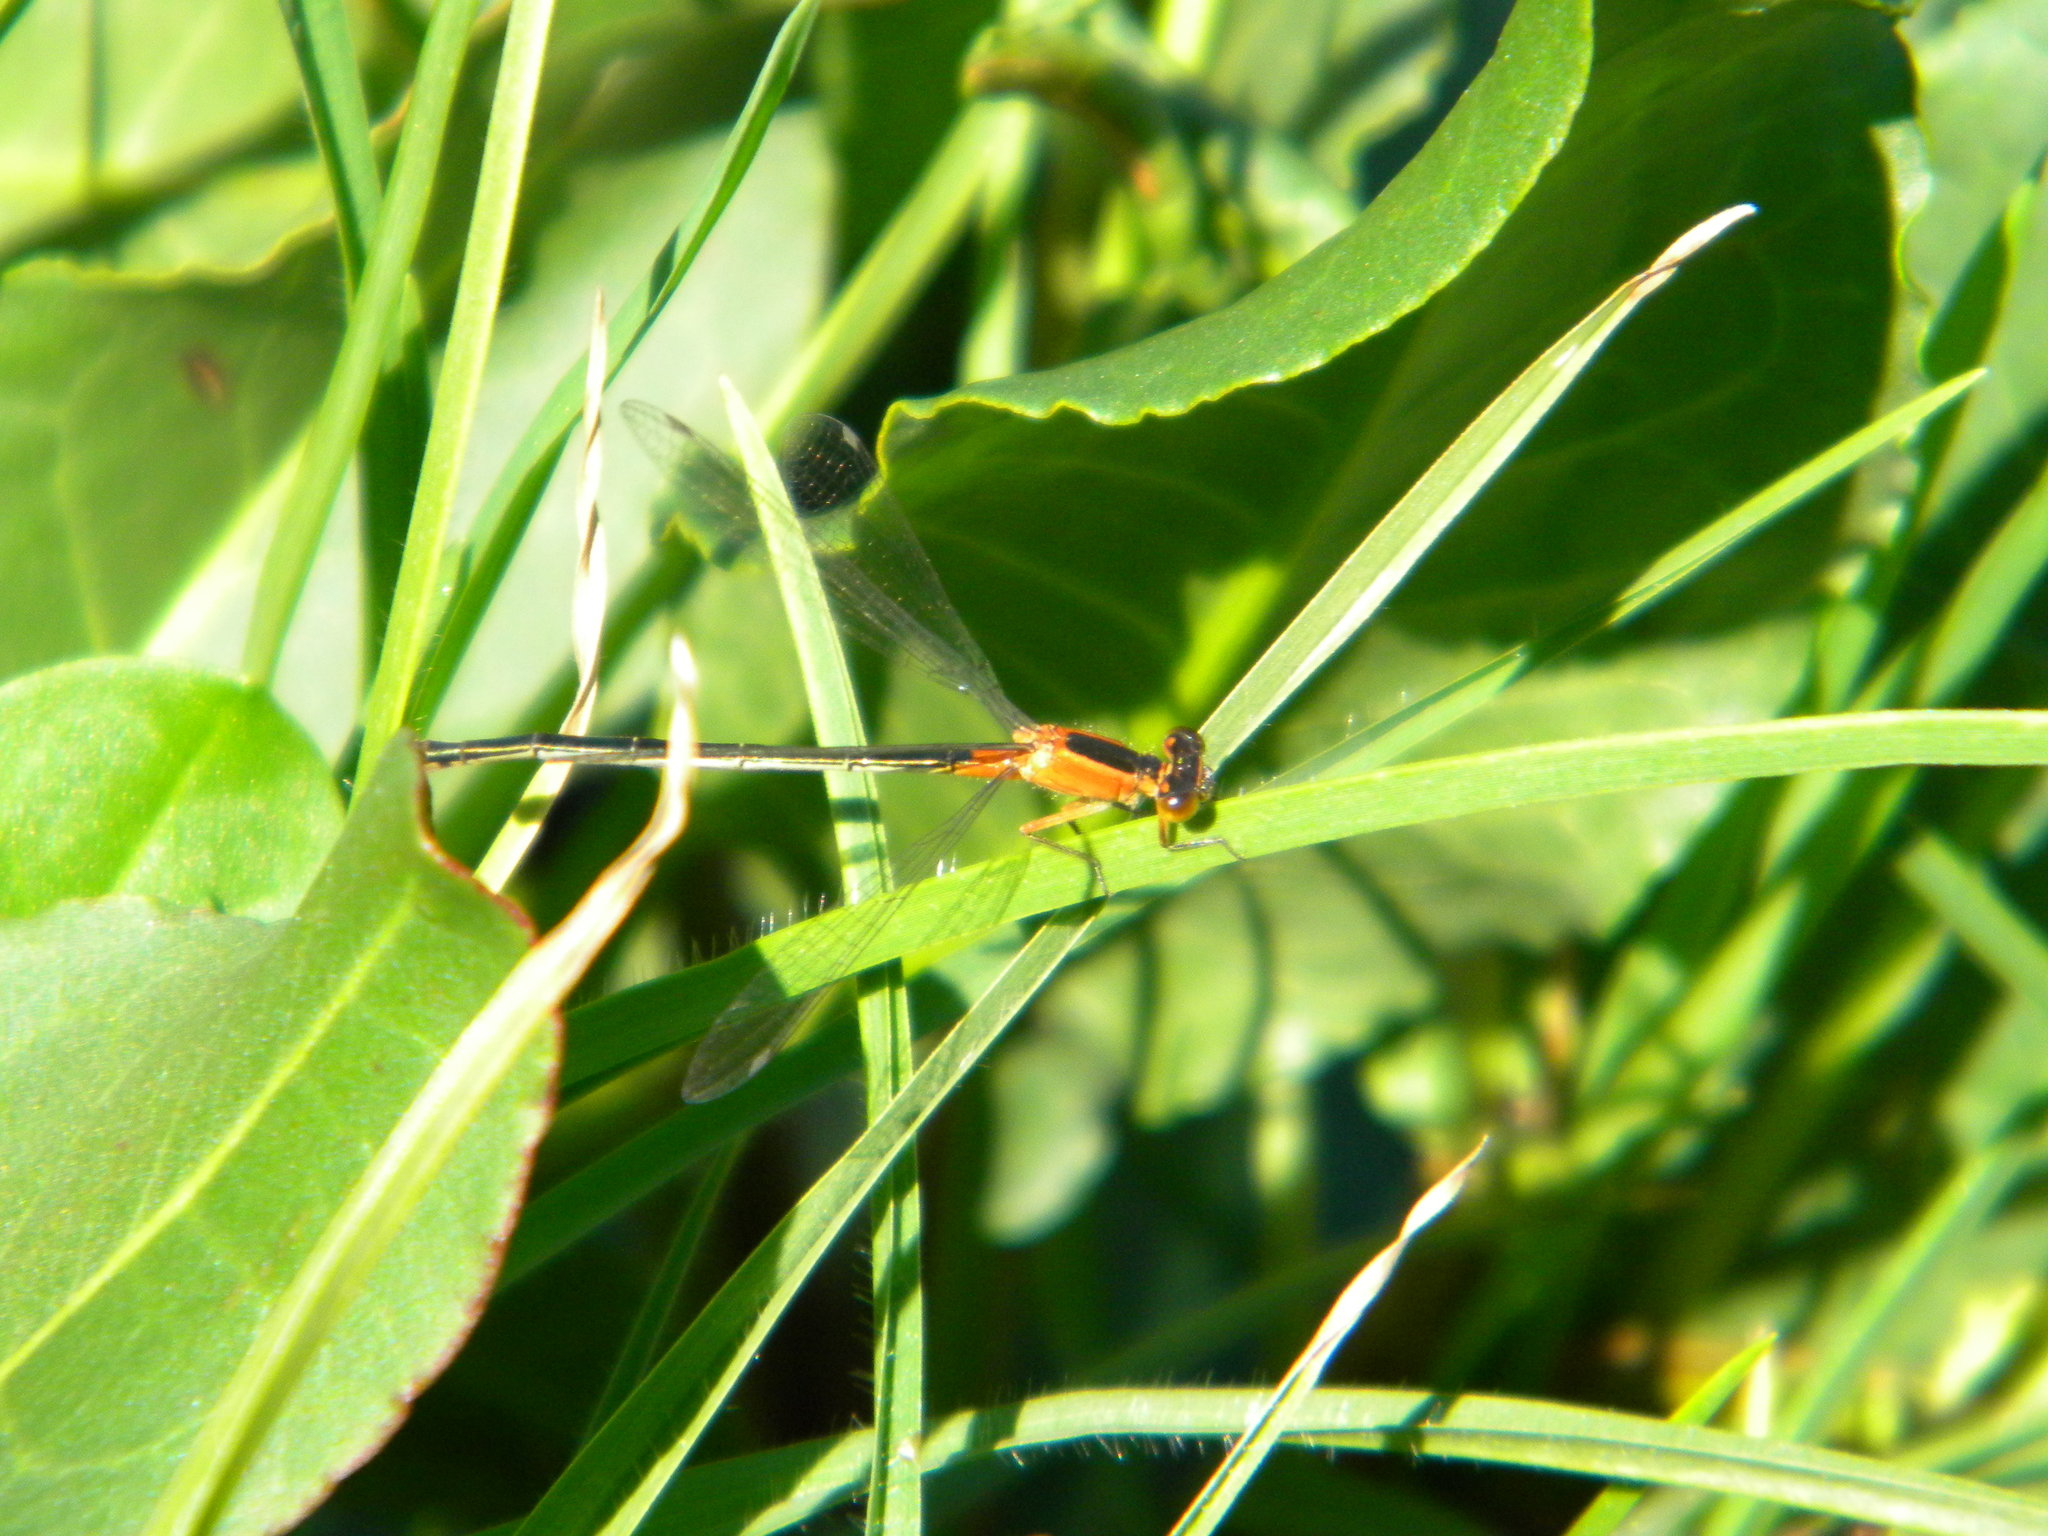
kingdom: Animalia
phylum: Arthropoda
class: Insecta
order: Odonata
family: Coenagrionidae
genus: Ischnura
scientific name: Ischnura senegalensis
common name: Tropical bluetail
